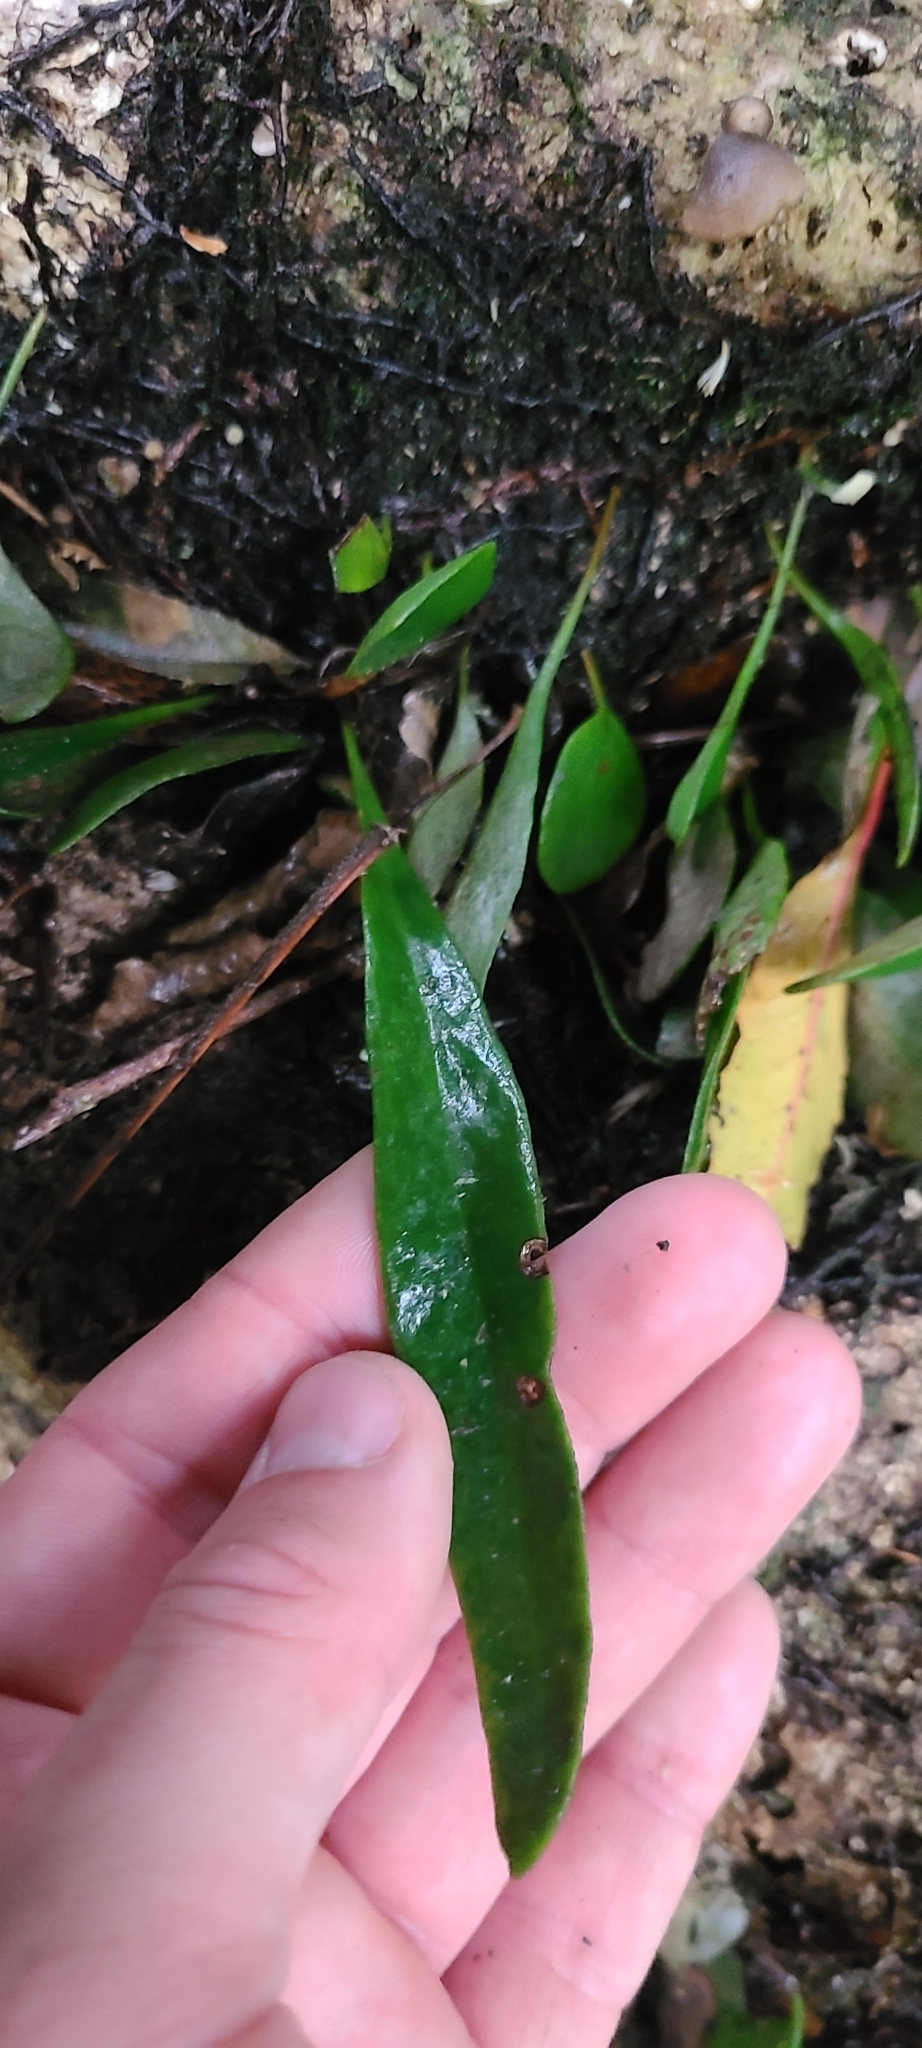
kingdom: Plantae
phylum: Tracheophyta
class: Polypodiopsida
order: Polypodiales
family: Polypodiaceae
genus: Pyrrosia
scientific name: Pyrrosia eleagnifolia
